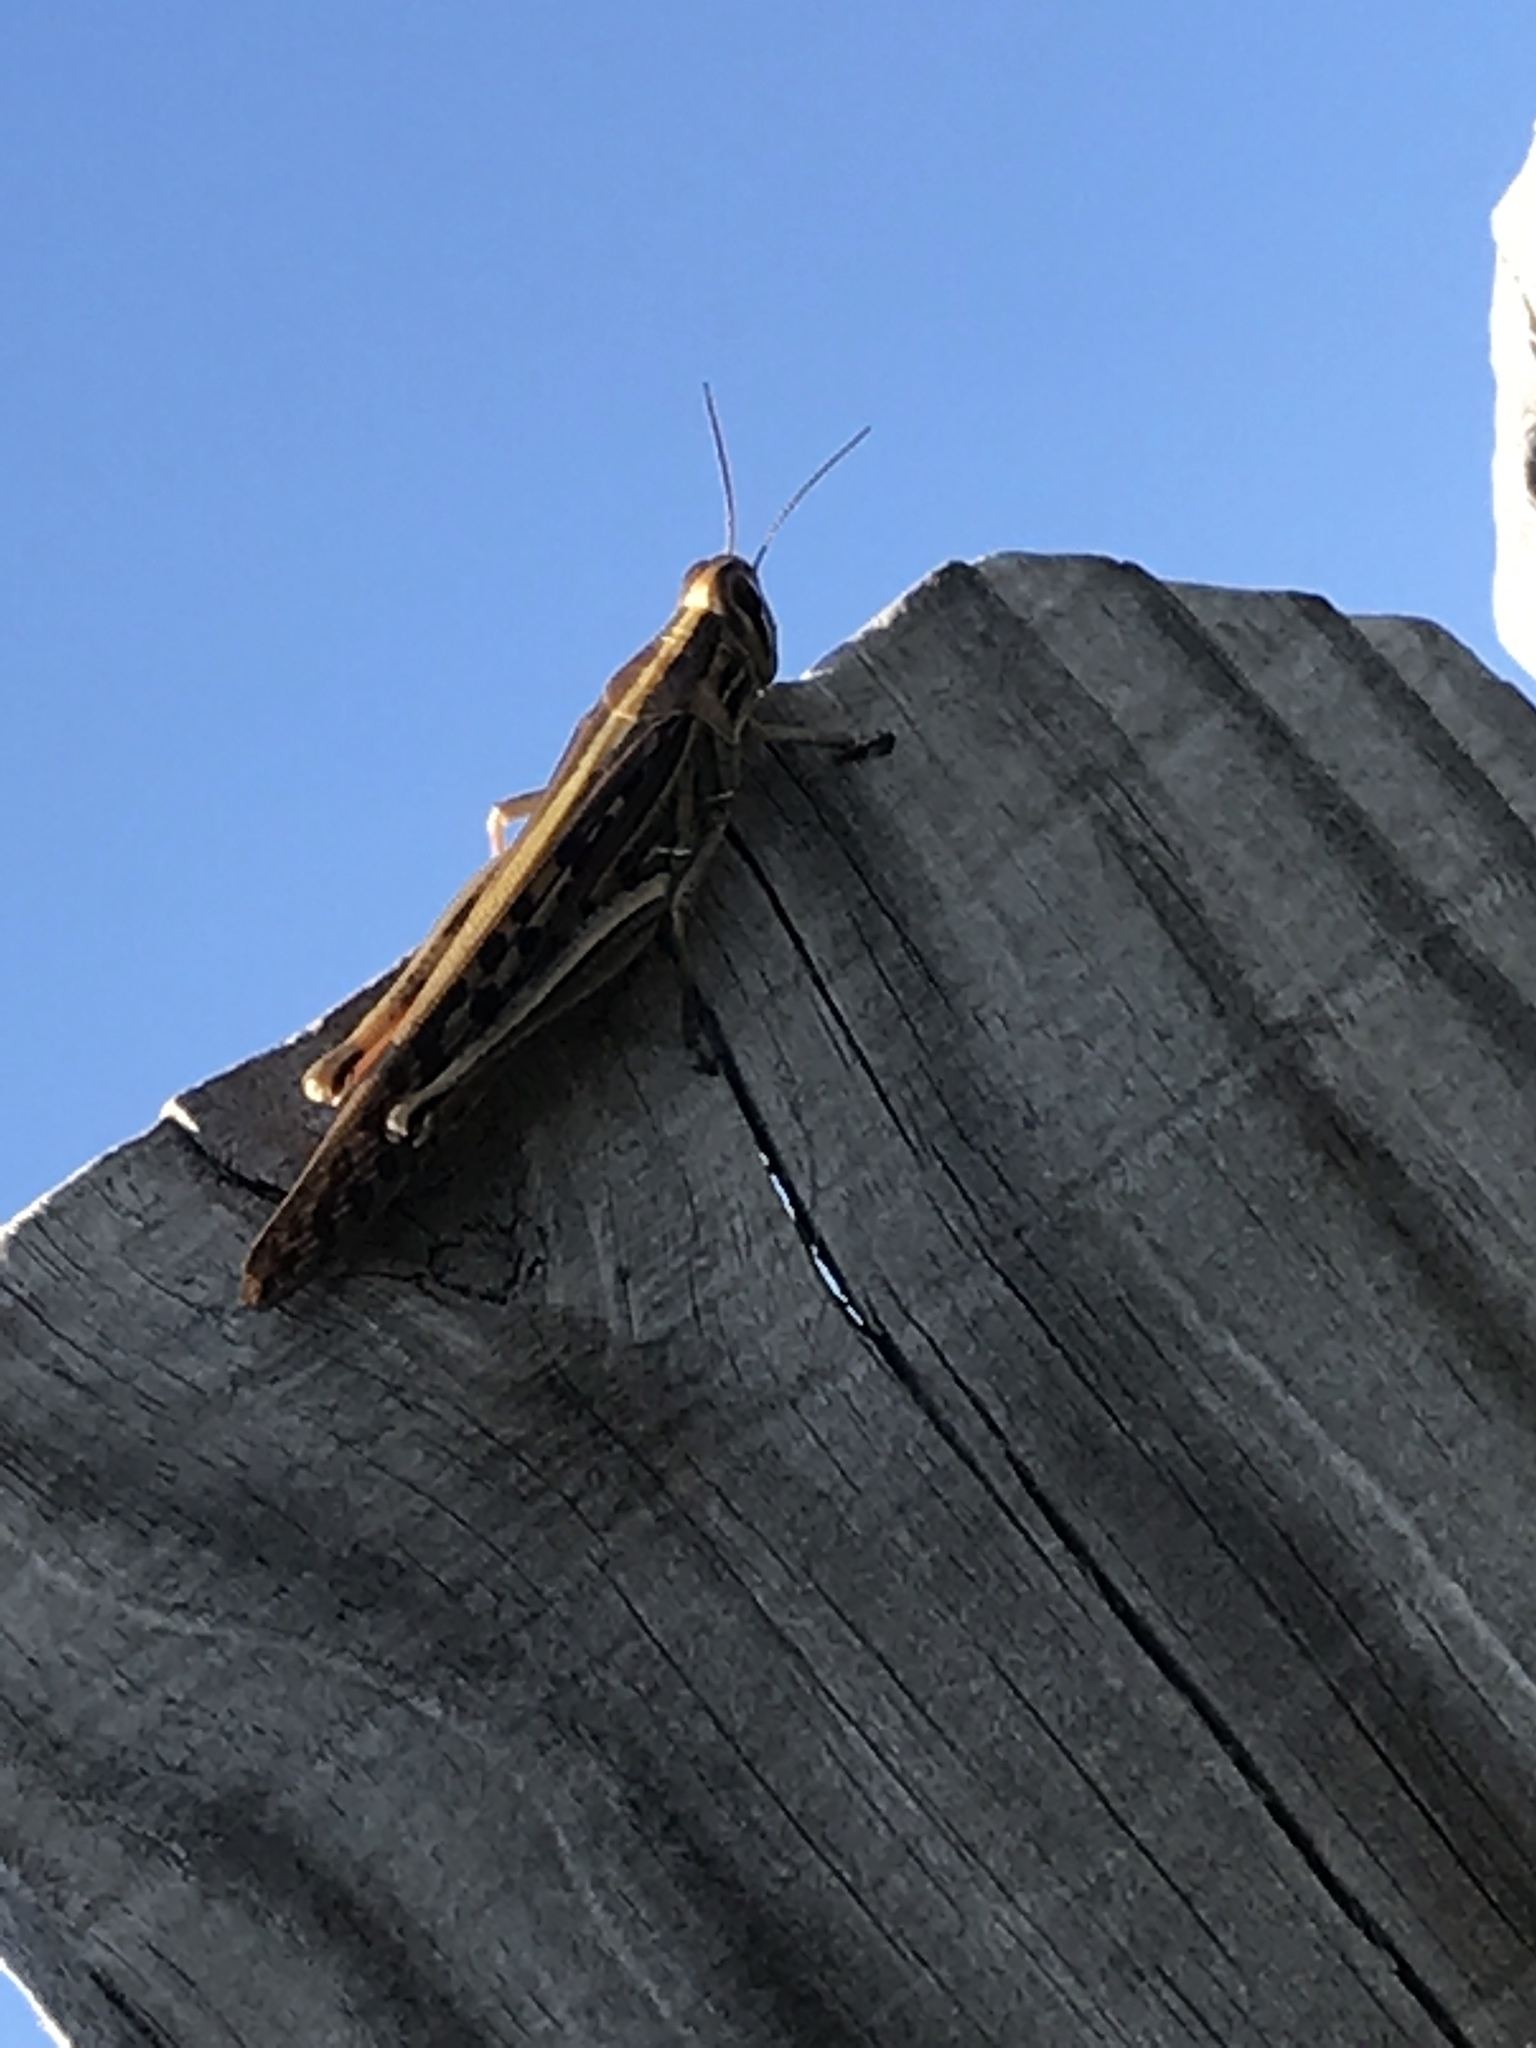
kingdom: Animalia
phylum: Arthropoda
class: Insecta
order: Orthoptera
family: Acrididae
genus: Schistocerca
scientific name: Schistocerca americana
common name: American bird locust
